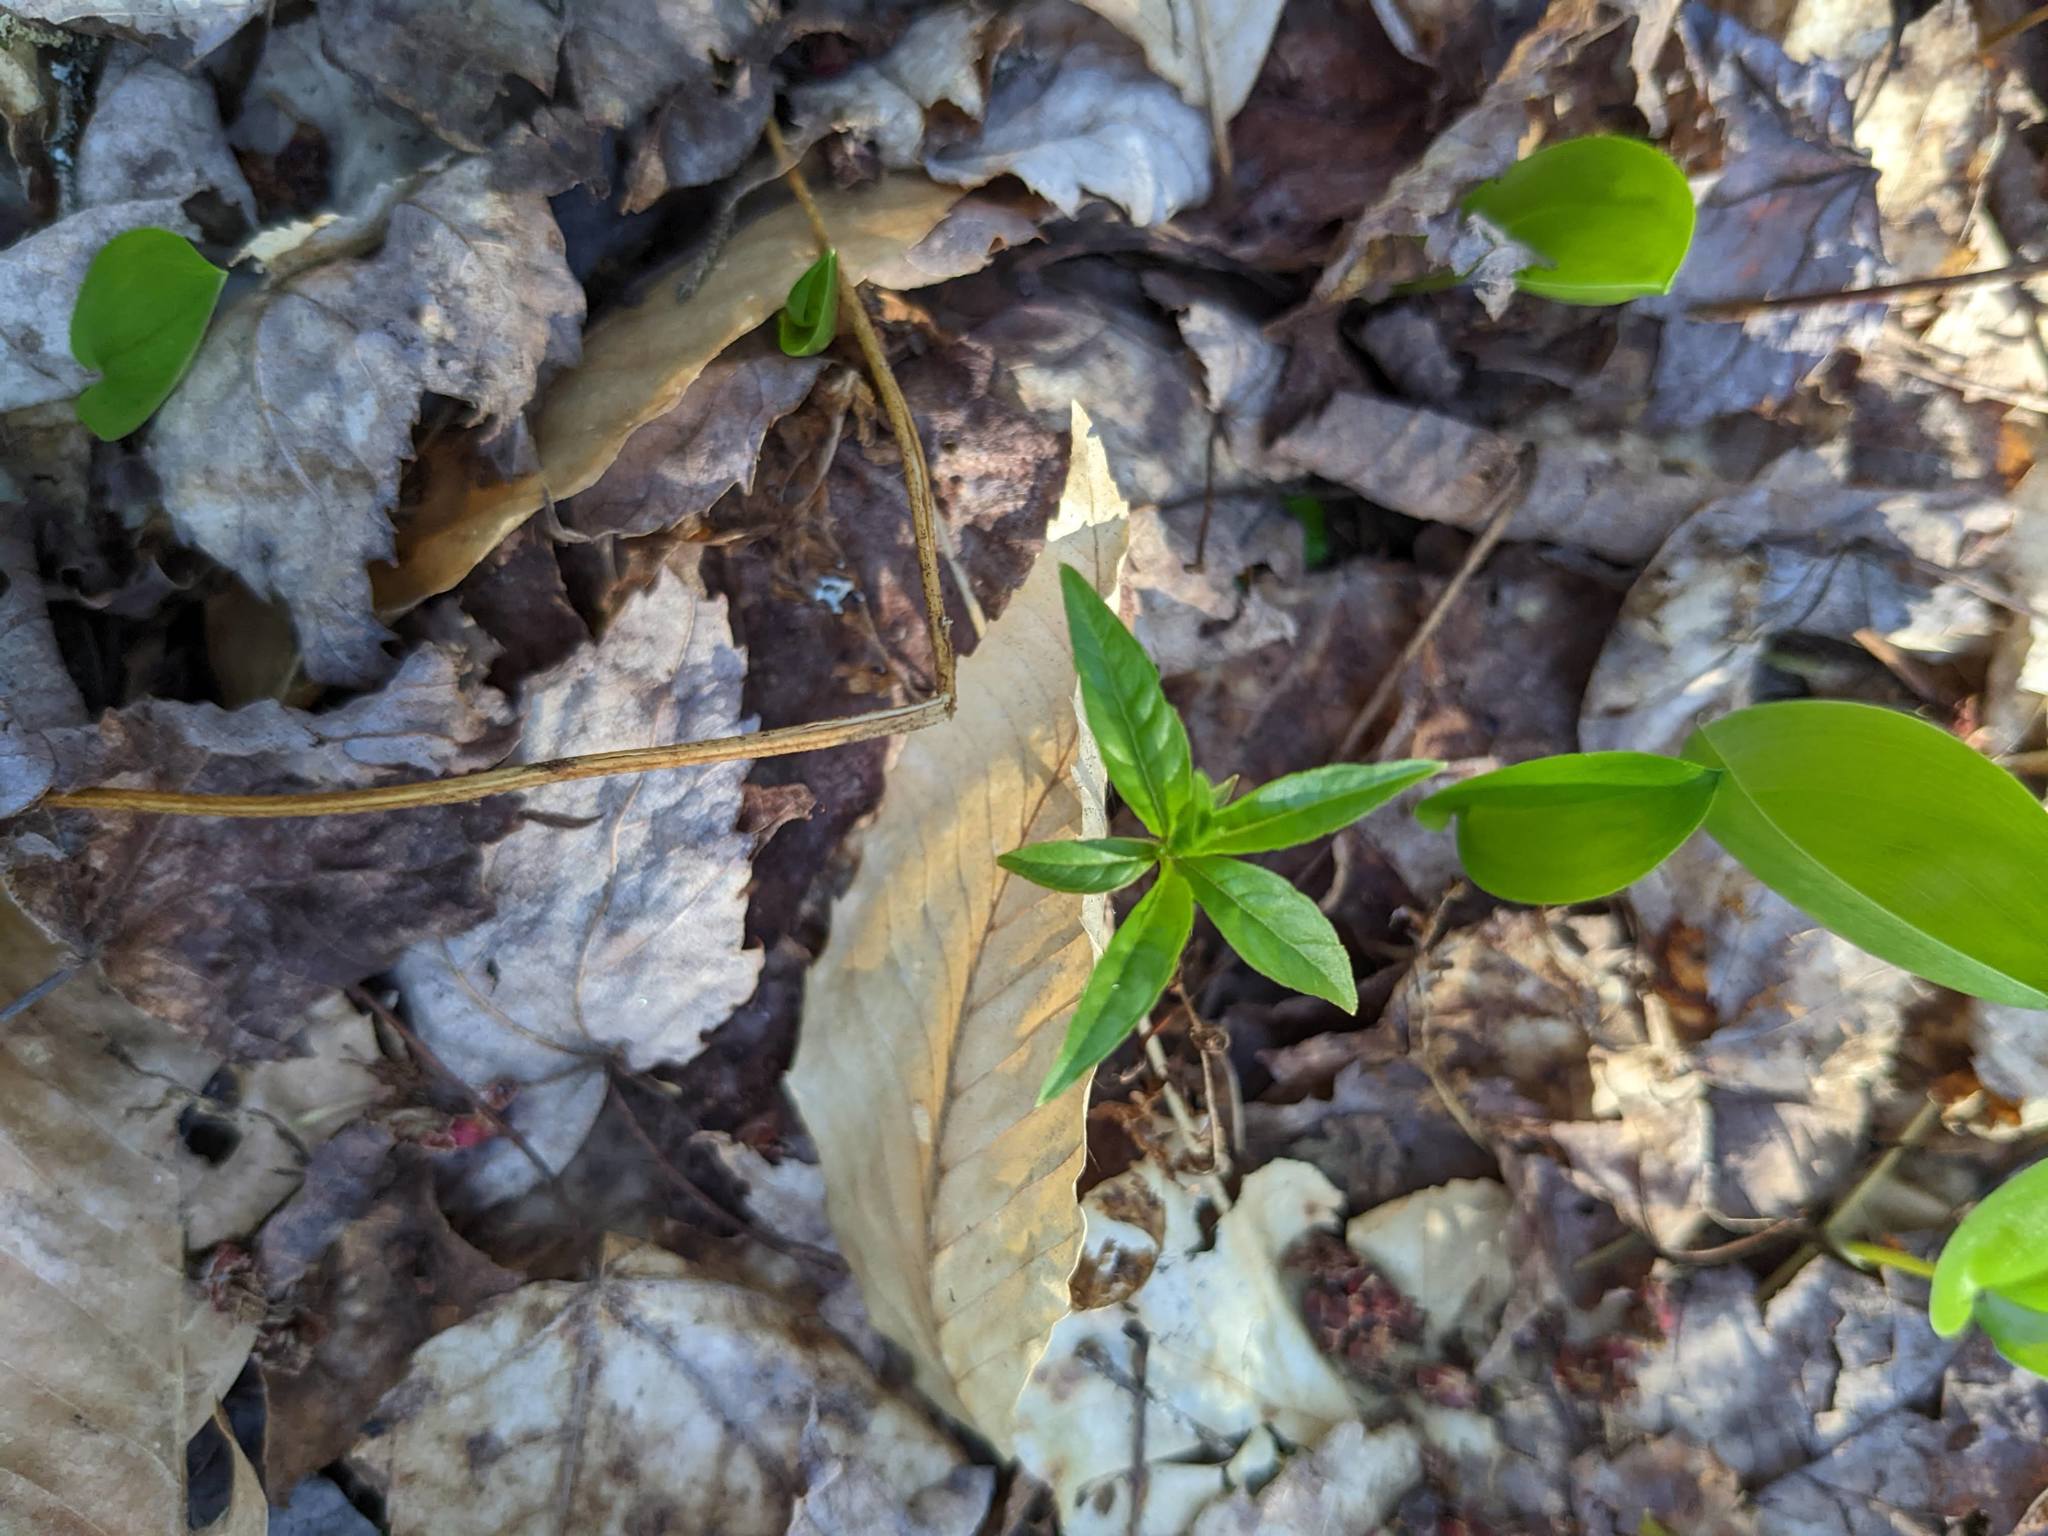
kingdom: Plantae
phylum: Tracheophyta
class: Magnoliopsida
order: Ericales
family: Primulaceae
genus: Lysimachia
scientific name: Lysimachia borealis
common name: American starflower
